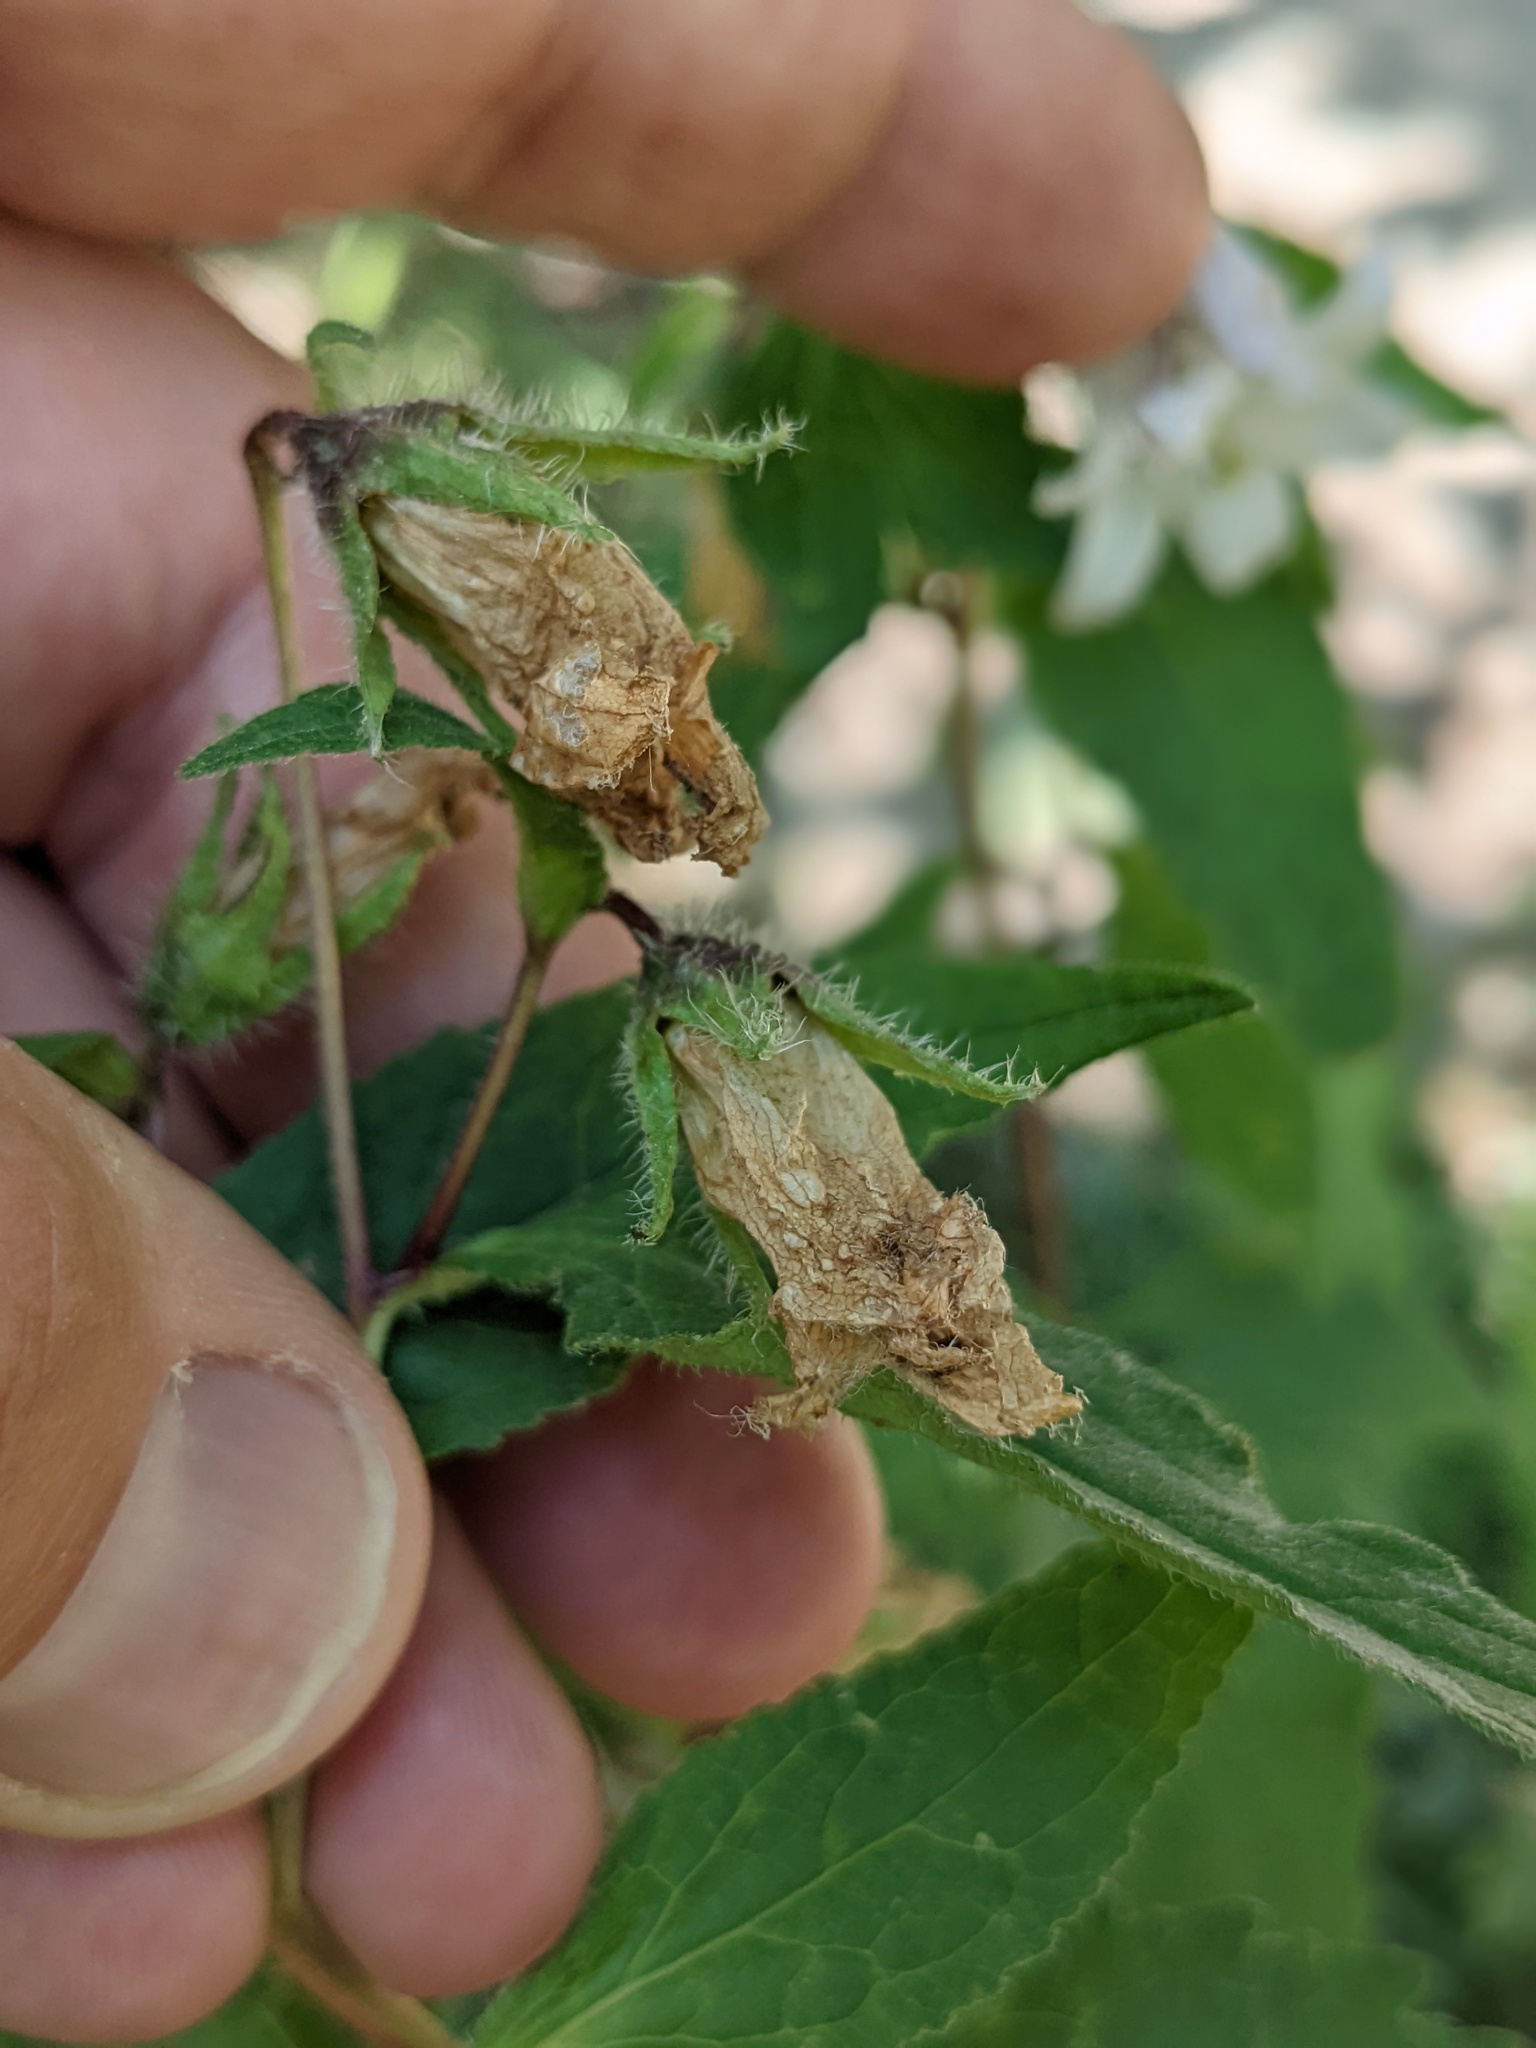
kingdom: Plantae
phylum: Tracheophyta
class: Magnoliopsida
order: Asterales
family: Campanulaceae
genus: Campanula
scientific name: Campanula trachelium
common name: Nettle-leaved bellflower
